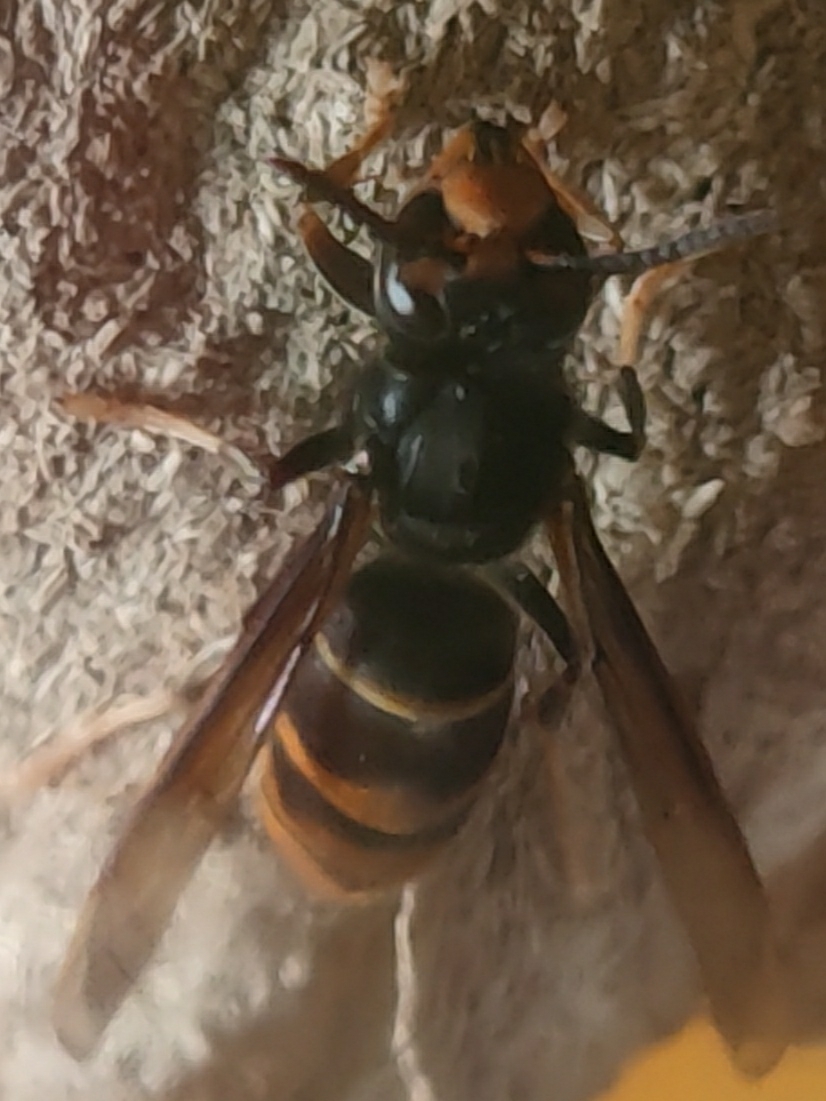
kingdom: Animalia
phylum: Arthropoda
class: Insecta
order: Hymenoptera
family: Vespidae
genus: Vespa
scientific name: Vespa velutina
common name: Asian hornet
